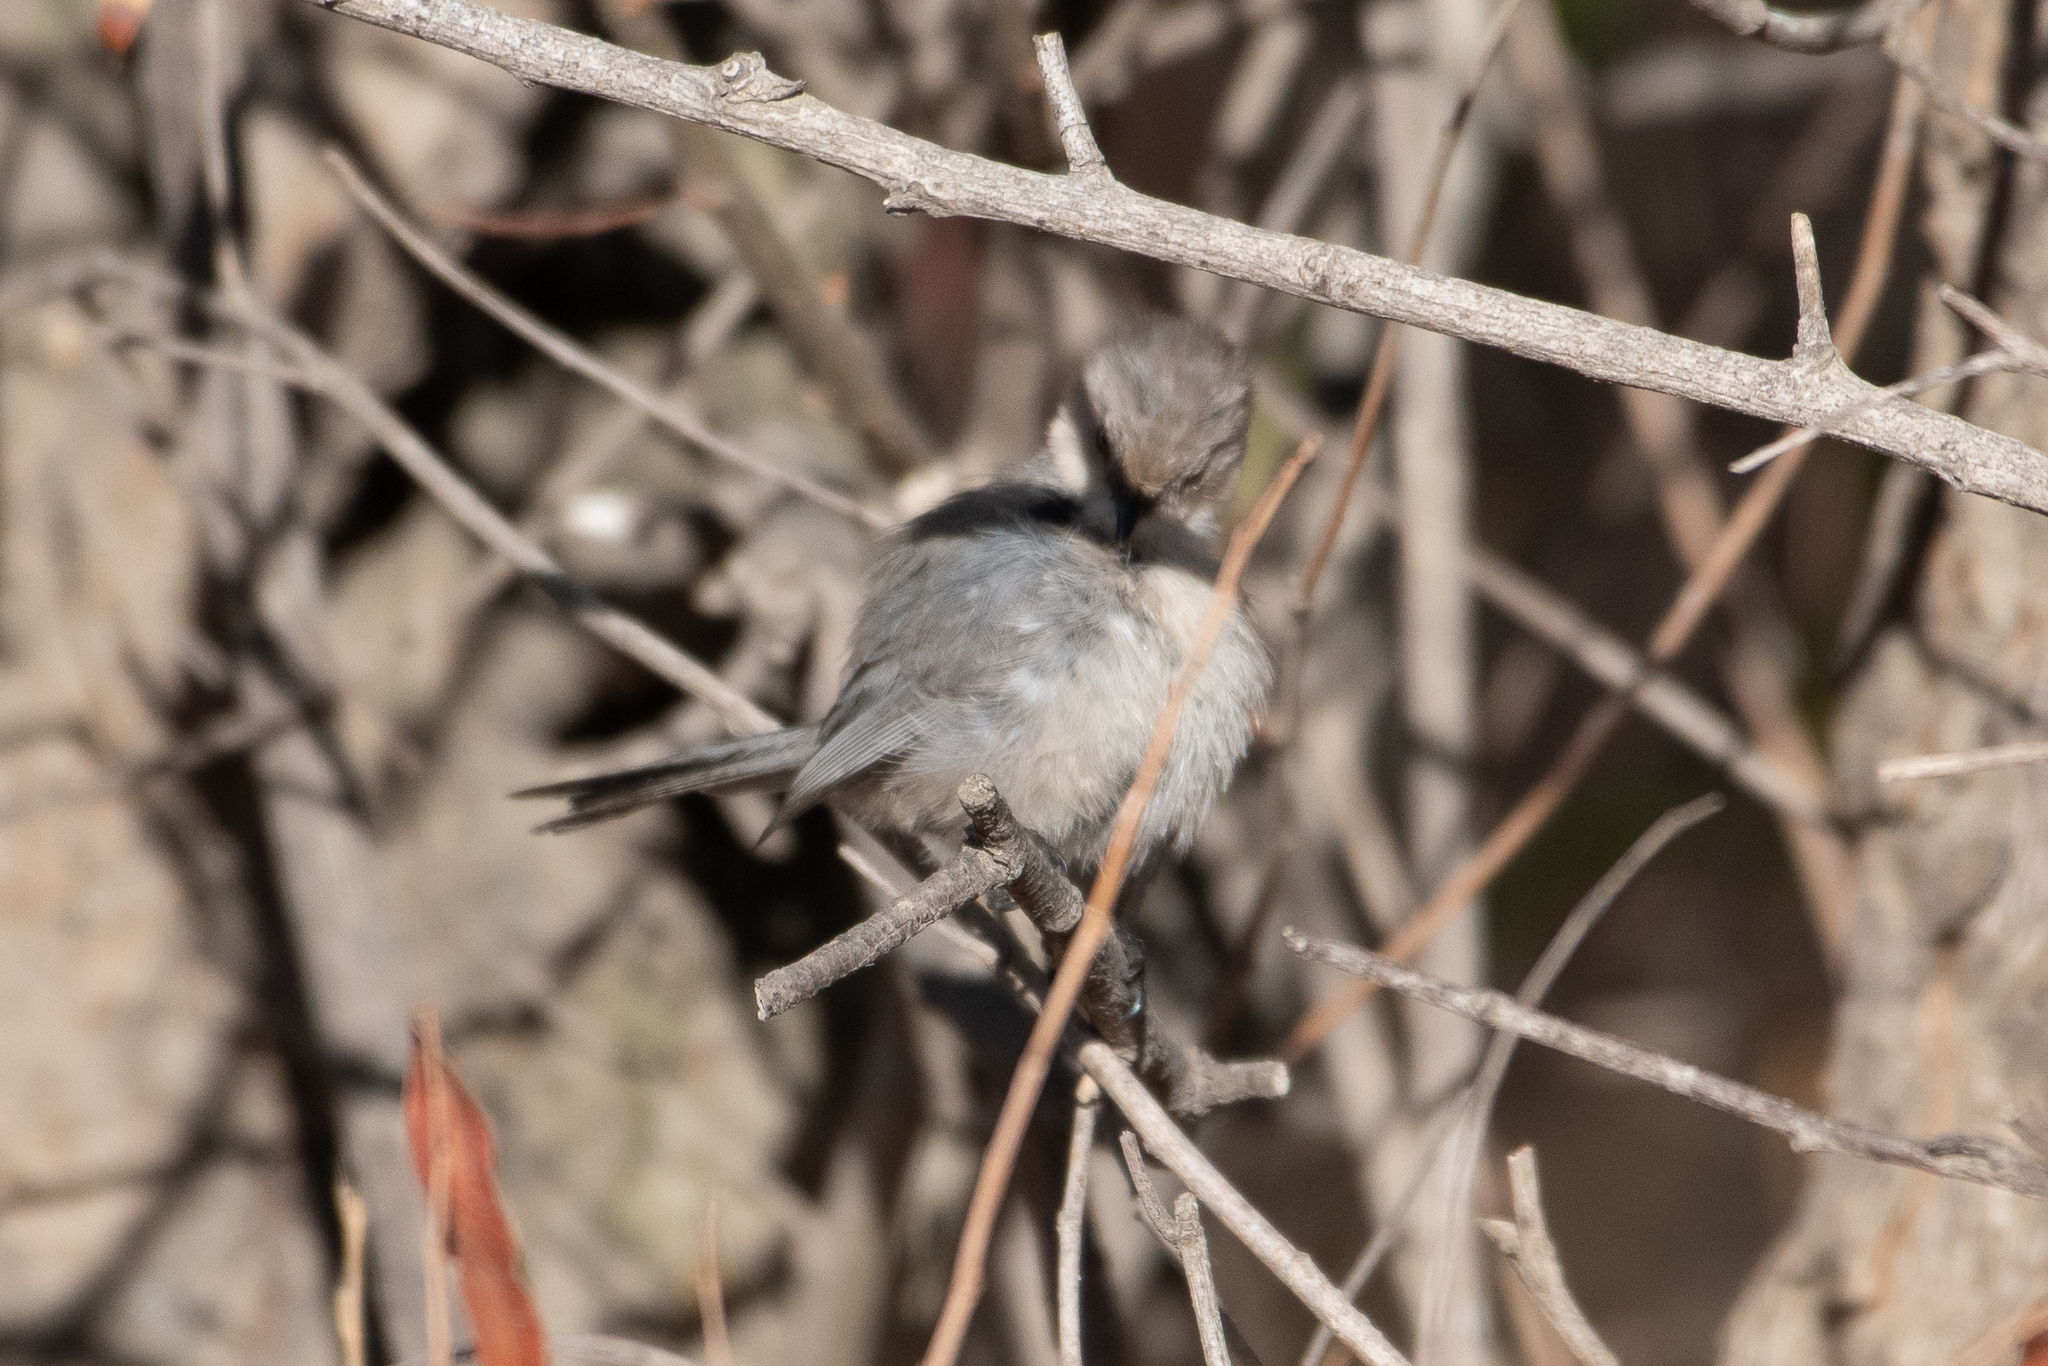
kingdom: Animalia
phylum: Chordata
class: Aves
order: Passeriformes
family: Aegithalidae
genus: Psaltriparus
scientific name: Psaltriparus minimus
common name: American bushtit
